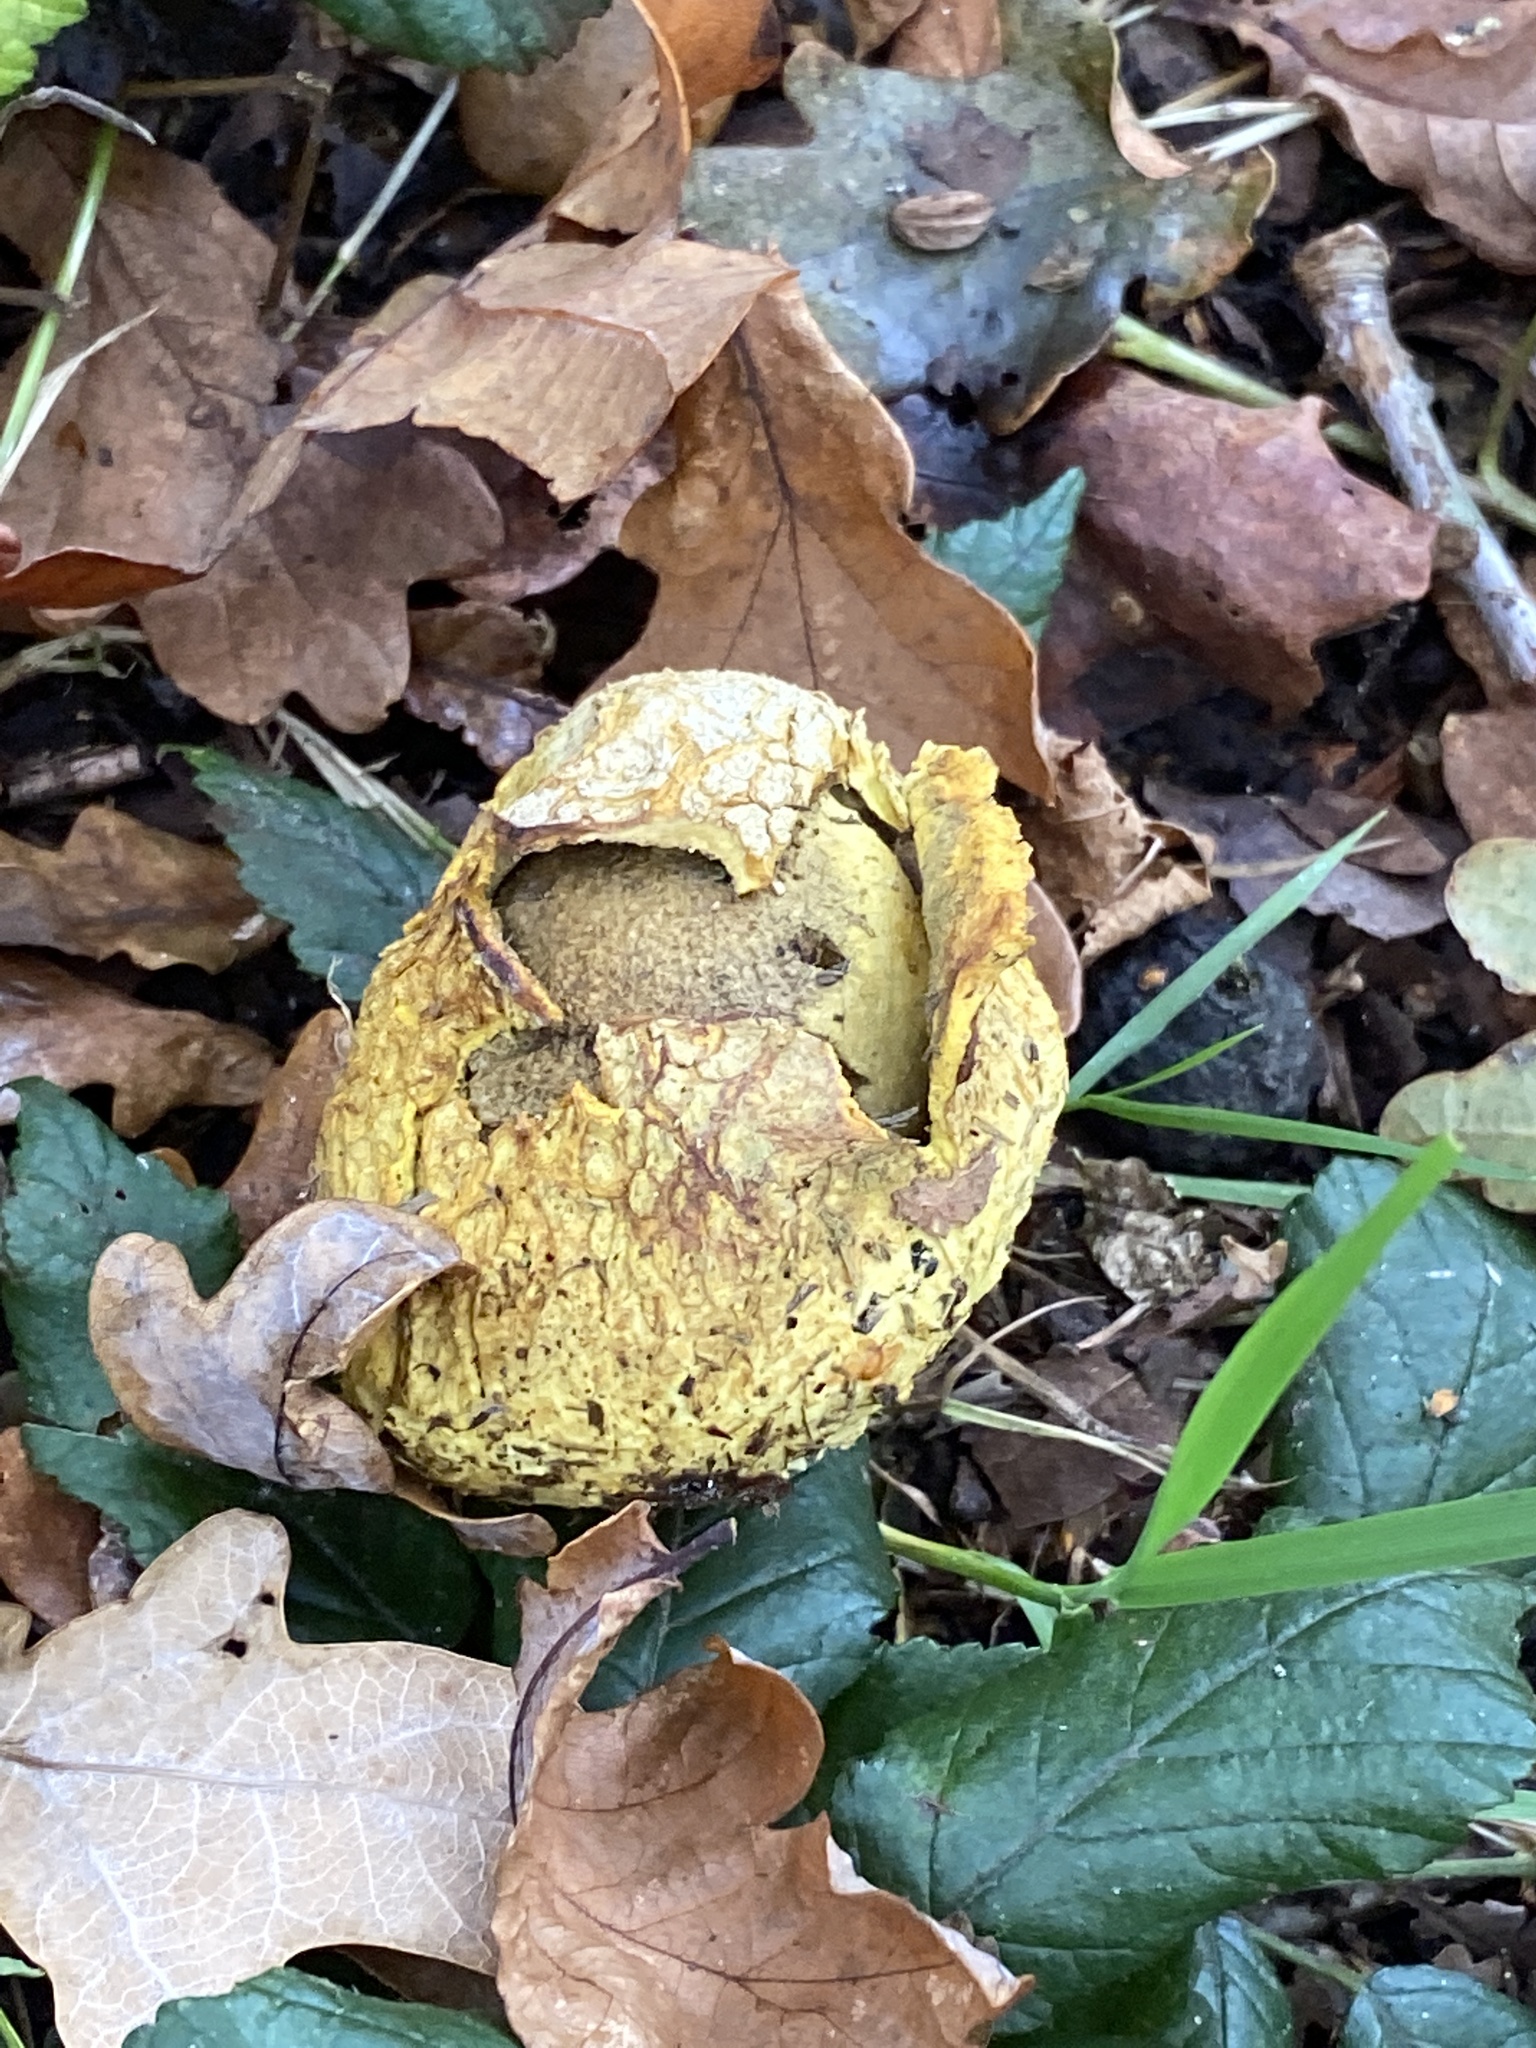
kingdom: Fungi
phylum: Basidiomycota
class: Agaricomycetes
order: Boletales
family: Sclerodermataceae
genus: Scleroderma
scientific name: Scleroderma citrinum
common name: Common earthball
